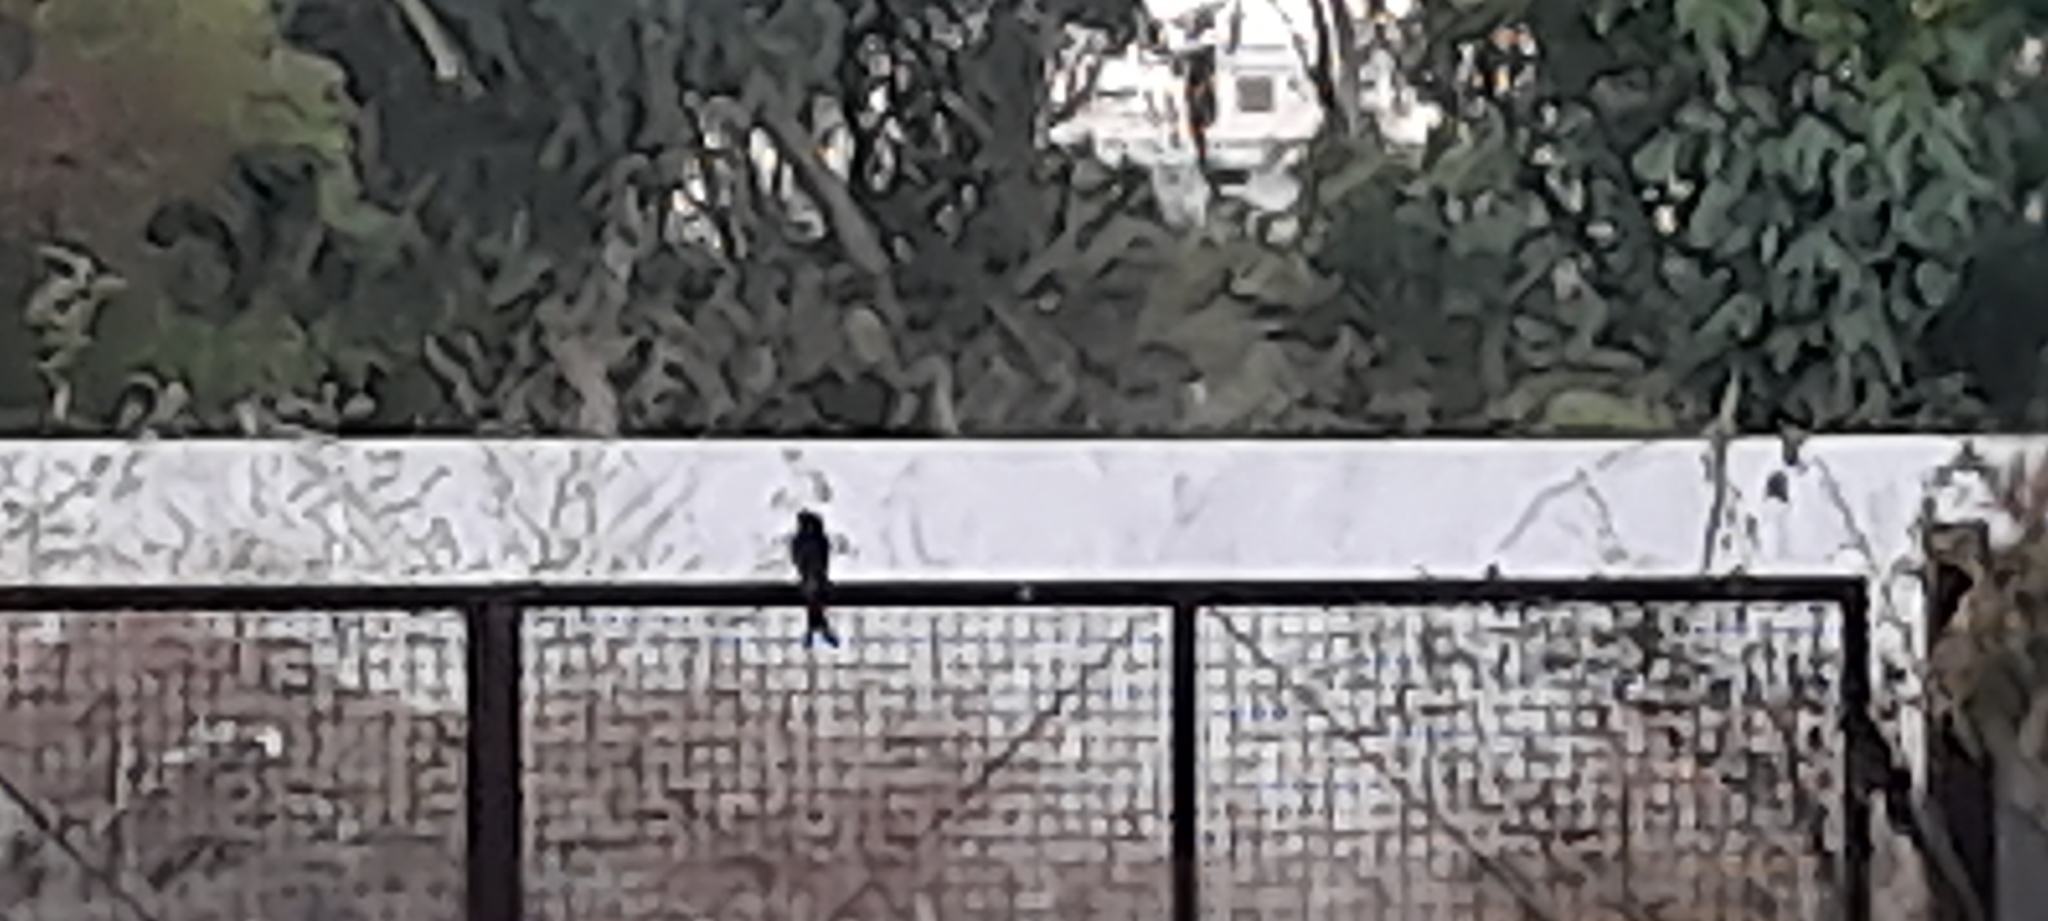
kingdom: Animalia
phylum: Chordata
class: Aves
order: Passeriformes
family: Dicruridae
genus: Dicrurus
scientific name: Dicrurus macrocercus
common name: Black drongo
